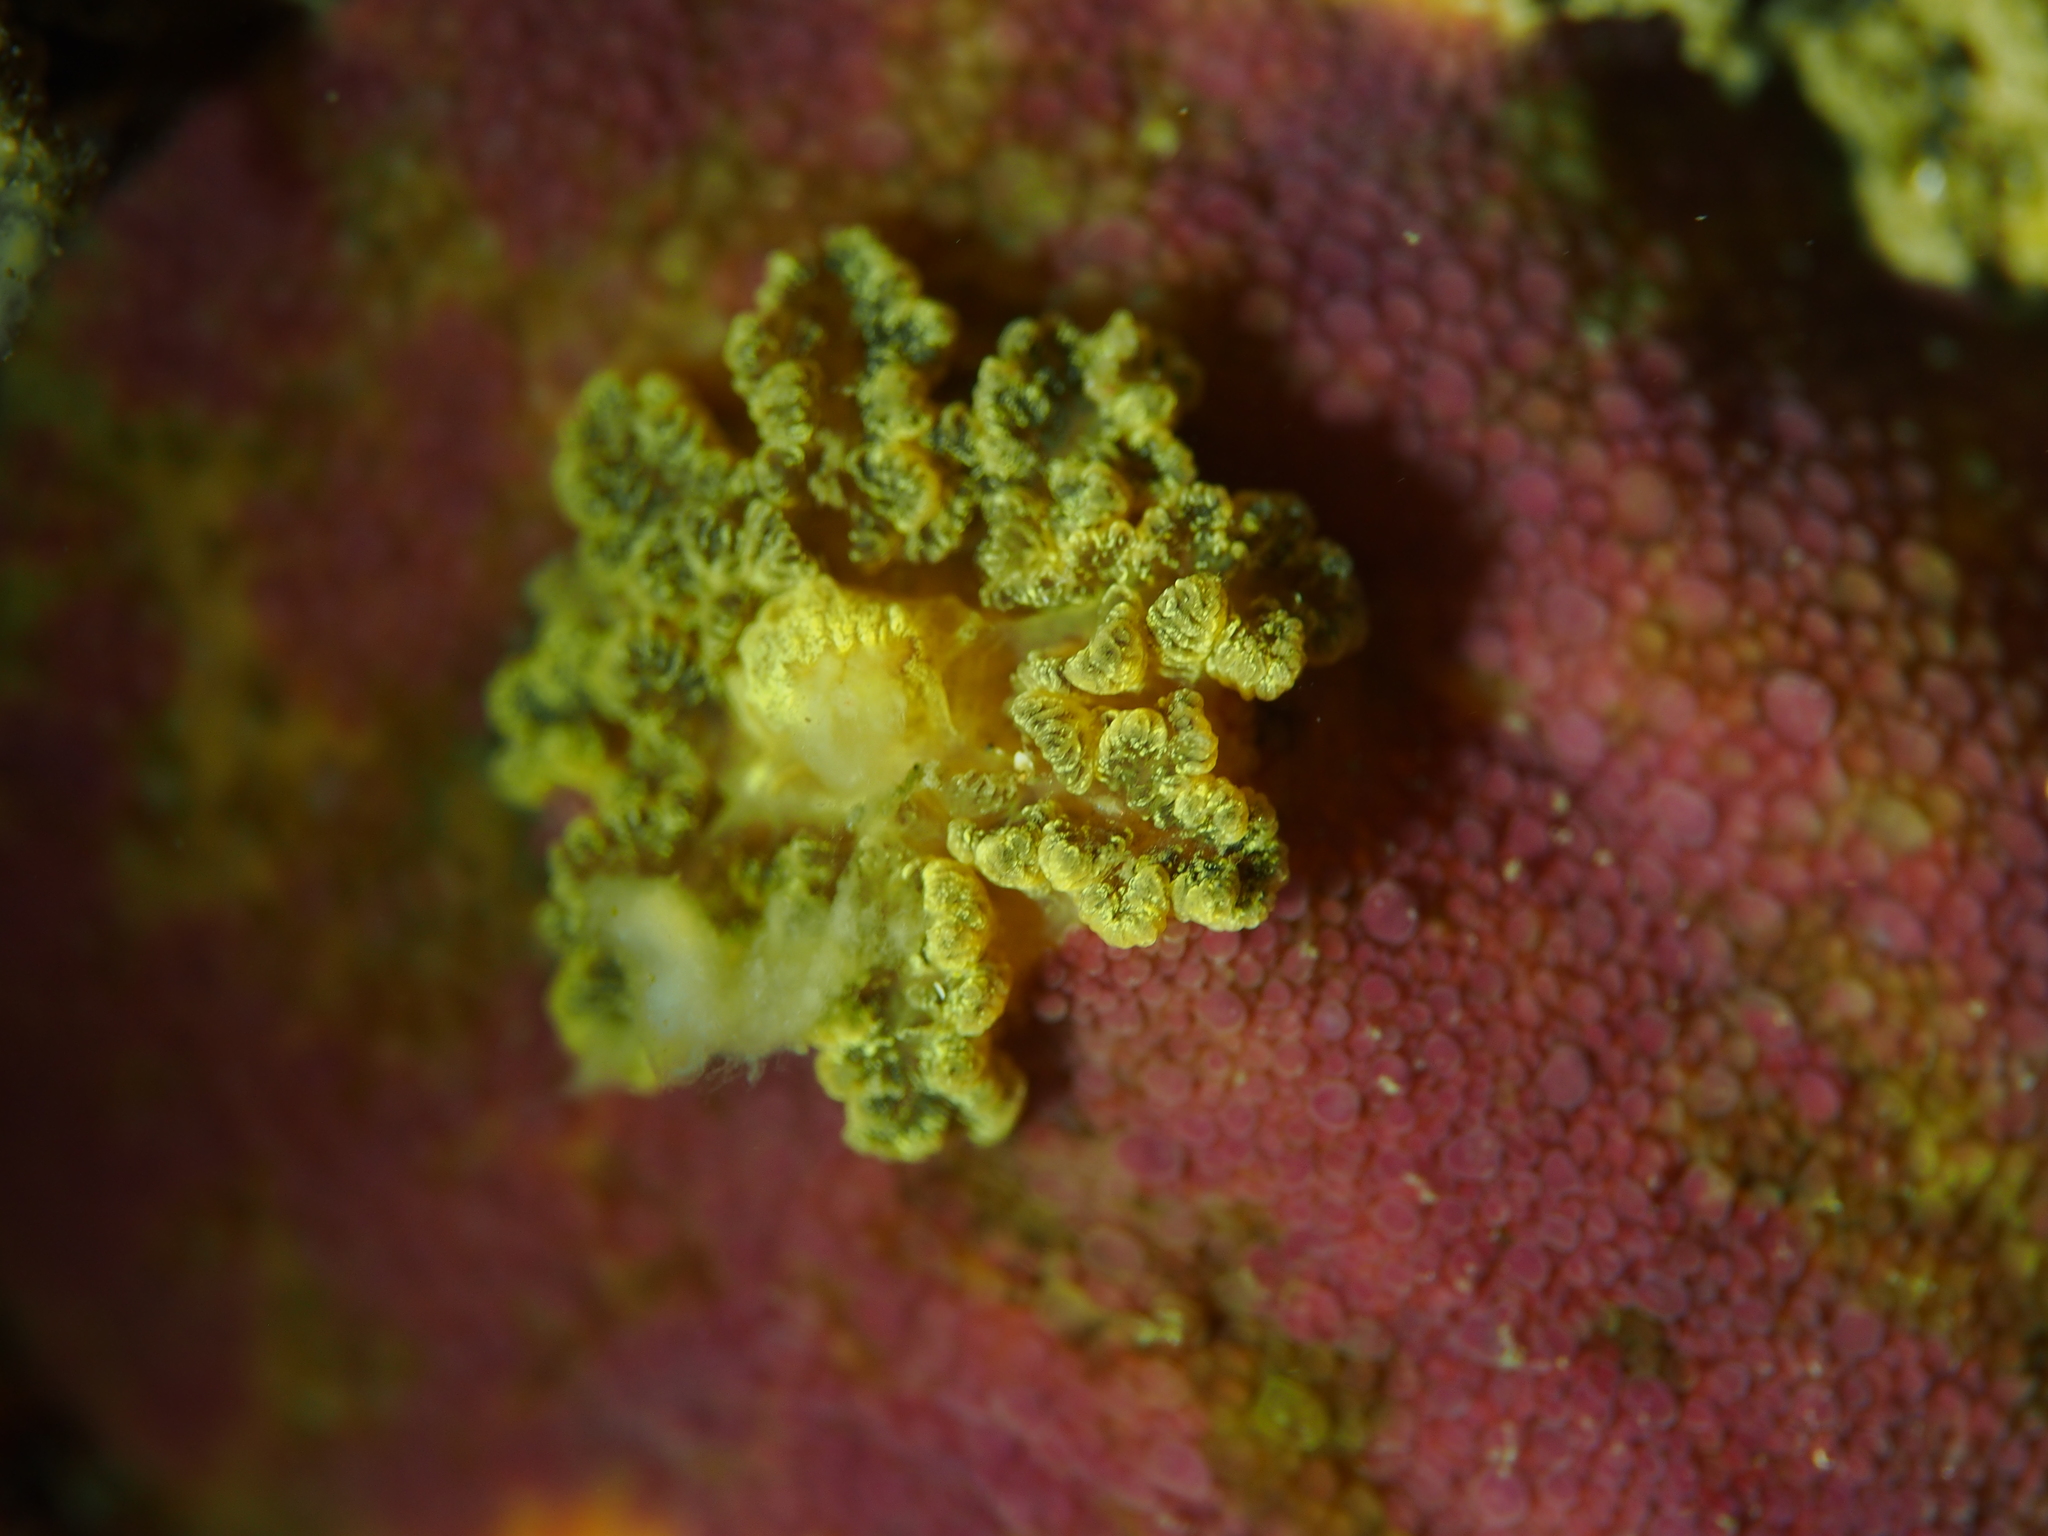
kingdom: Animalia
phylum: Mollusca
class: Gastropoda
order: Nudibranchia
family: Dorididae
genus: Doris
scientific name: Doris pseudoargus
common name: Sea lemon
